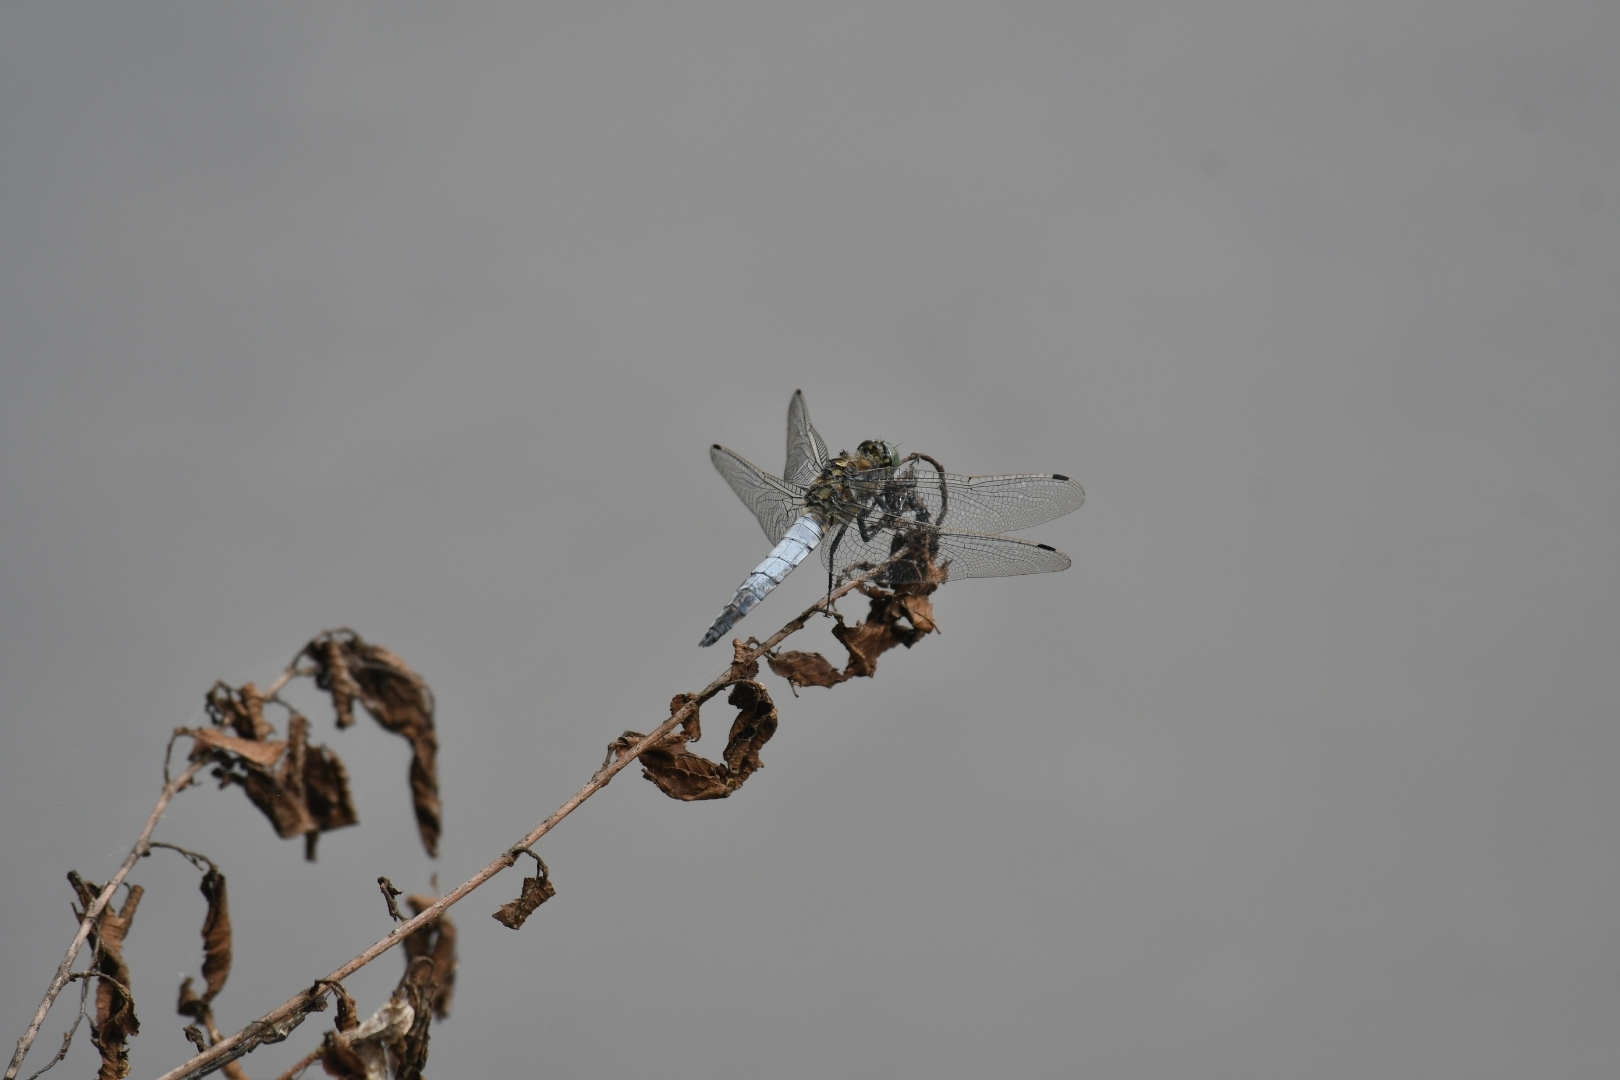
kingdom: Animalia
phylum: Arthropoda
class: Insecta
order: Odonata
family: Libellulidae
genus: Orthetrum
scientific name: Orthetrum cancellatum
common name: Black-tailed skimmer
